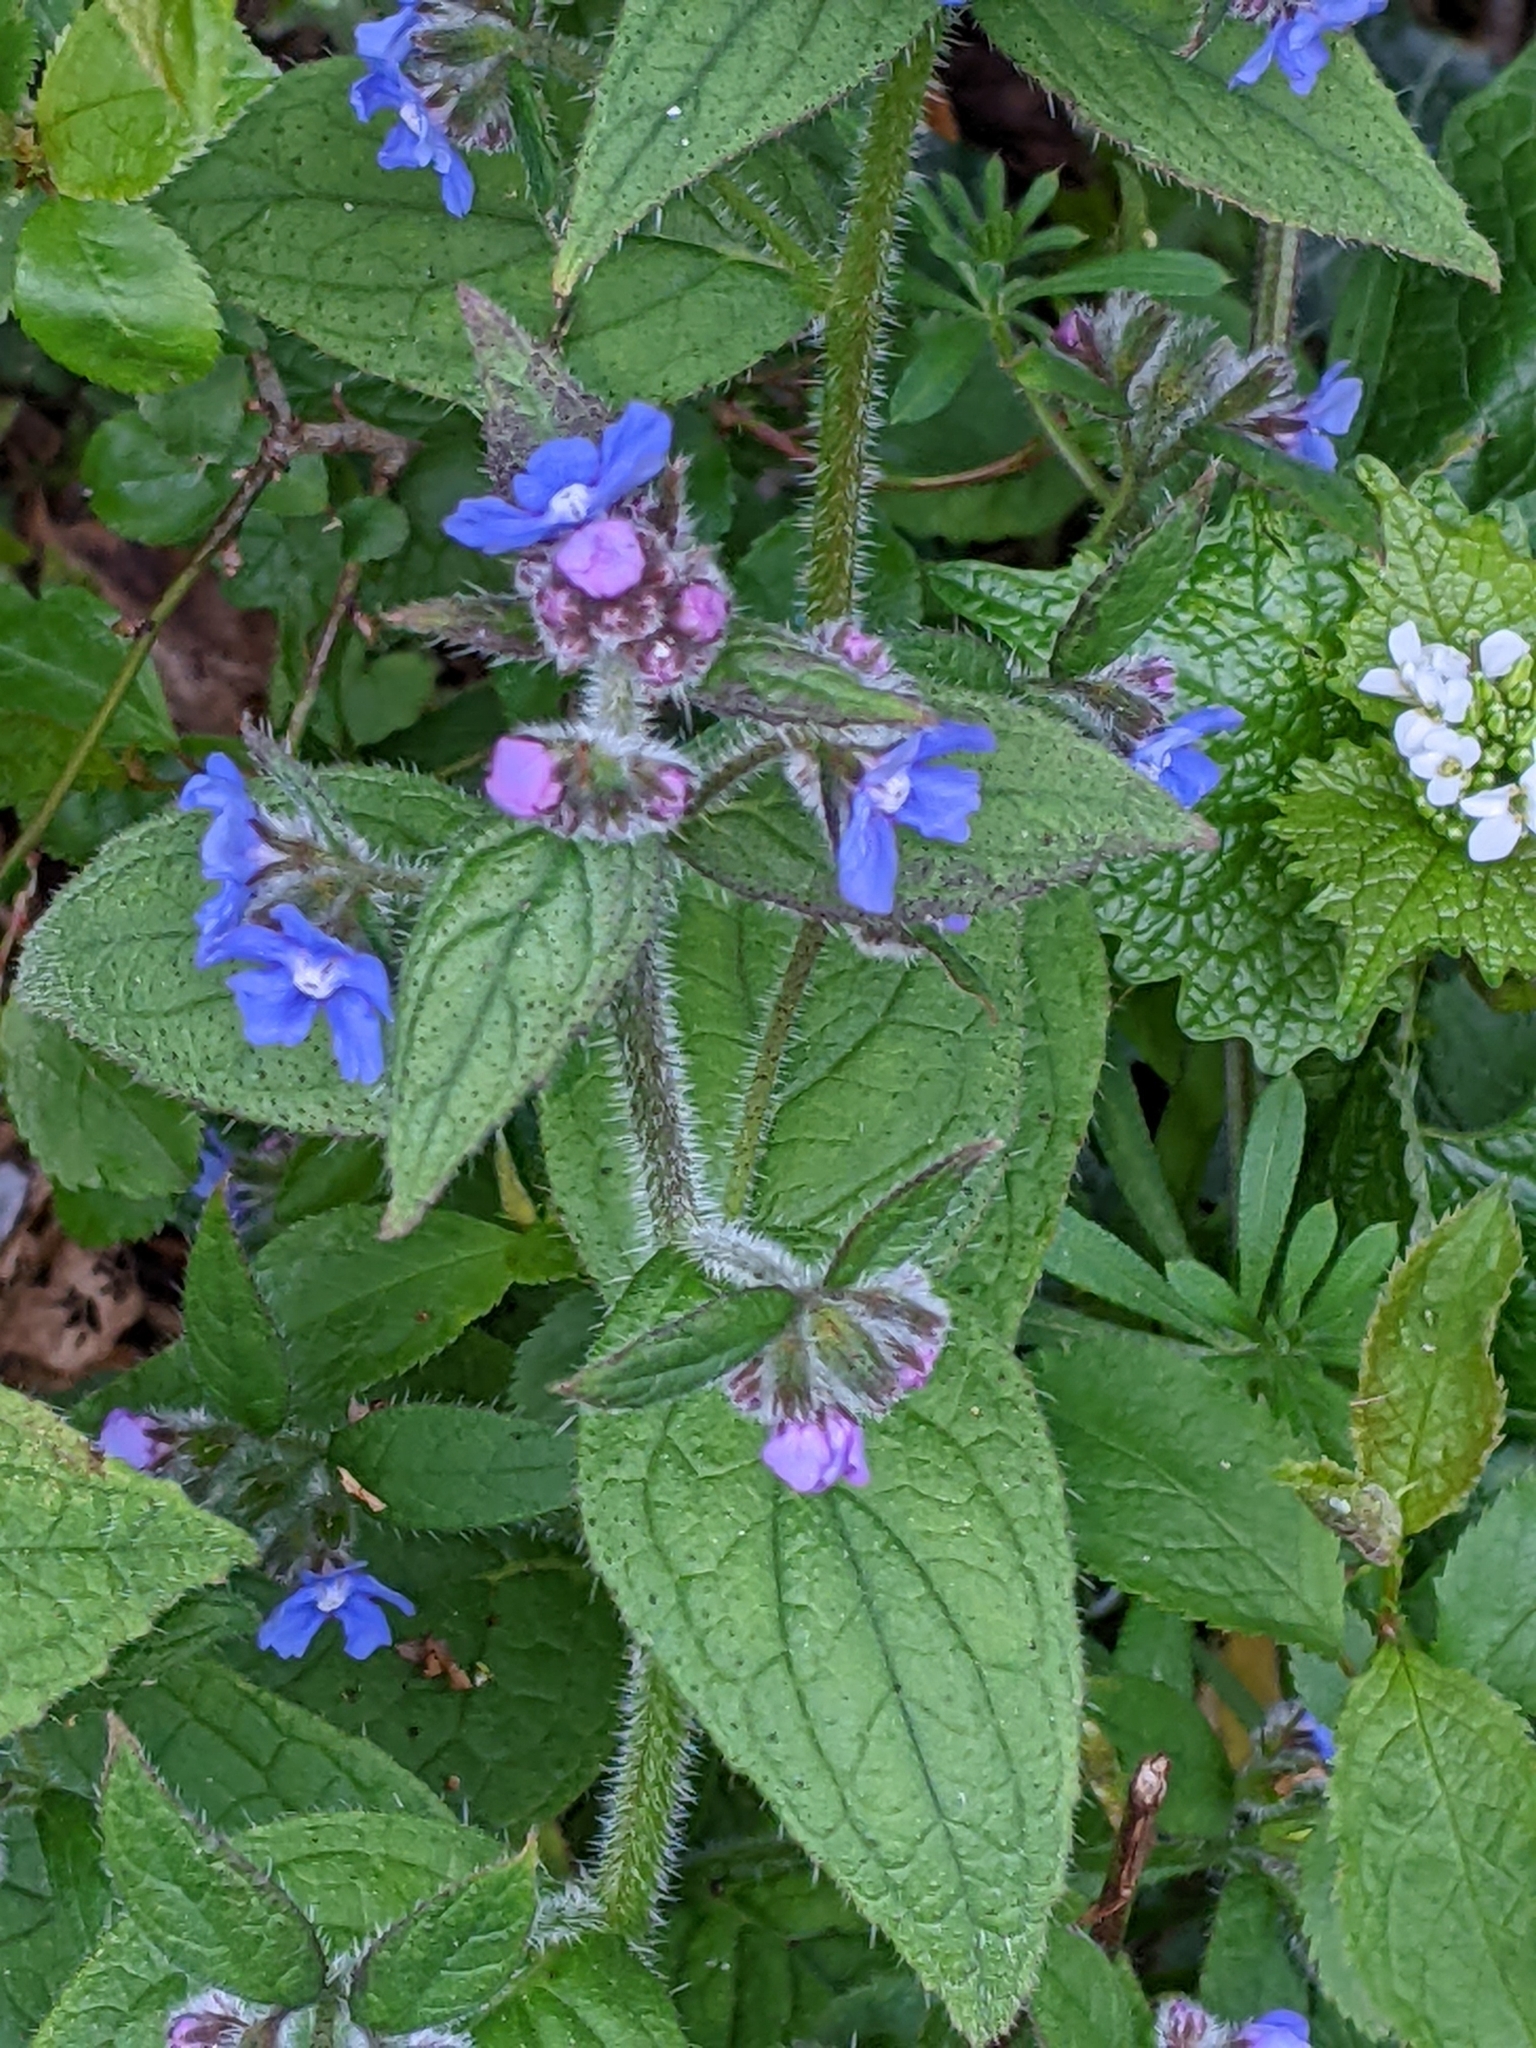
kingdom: Plantae
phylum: Tracheophyta
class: Magnoliopsida
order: Boraginales
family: Boraginaceae
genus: Pentaglottis
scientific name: Pentaglottis sempervirens
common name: Green alkanet
